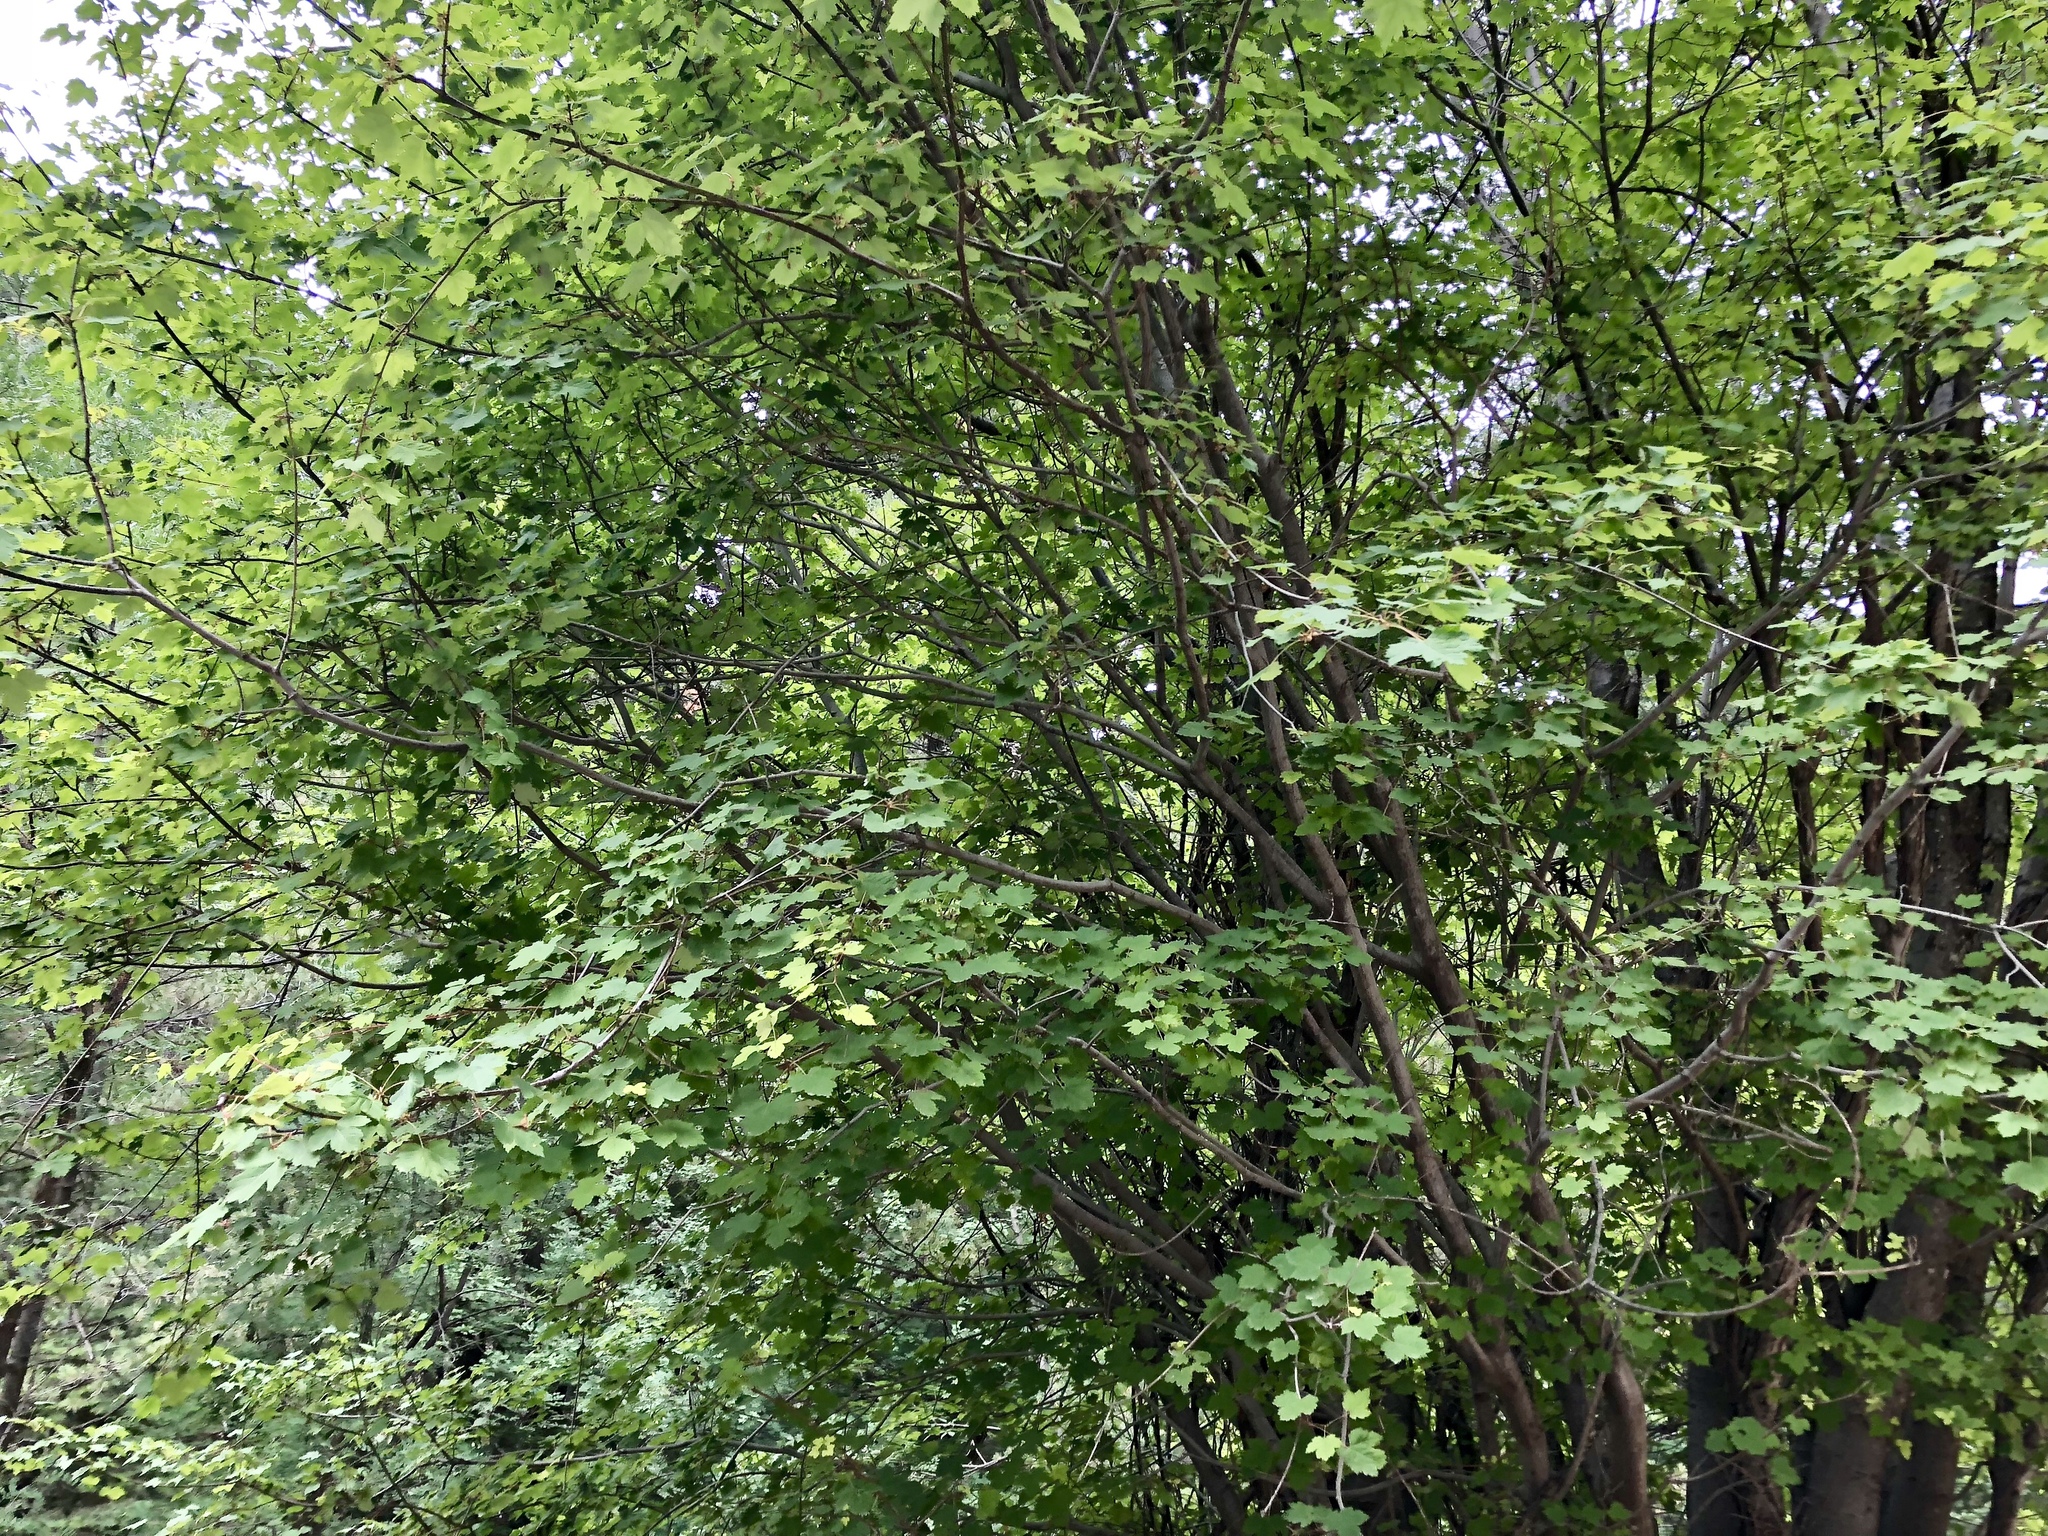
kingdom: Plantae
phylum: Tracheophyta
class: Magnoliopsida
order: Sapindales
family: Sapindaceae
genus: Acer
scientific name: Acer glabrum
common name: Rocky mountain maple
